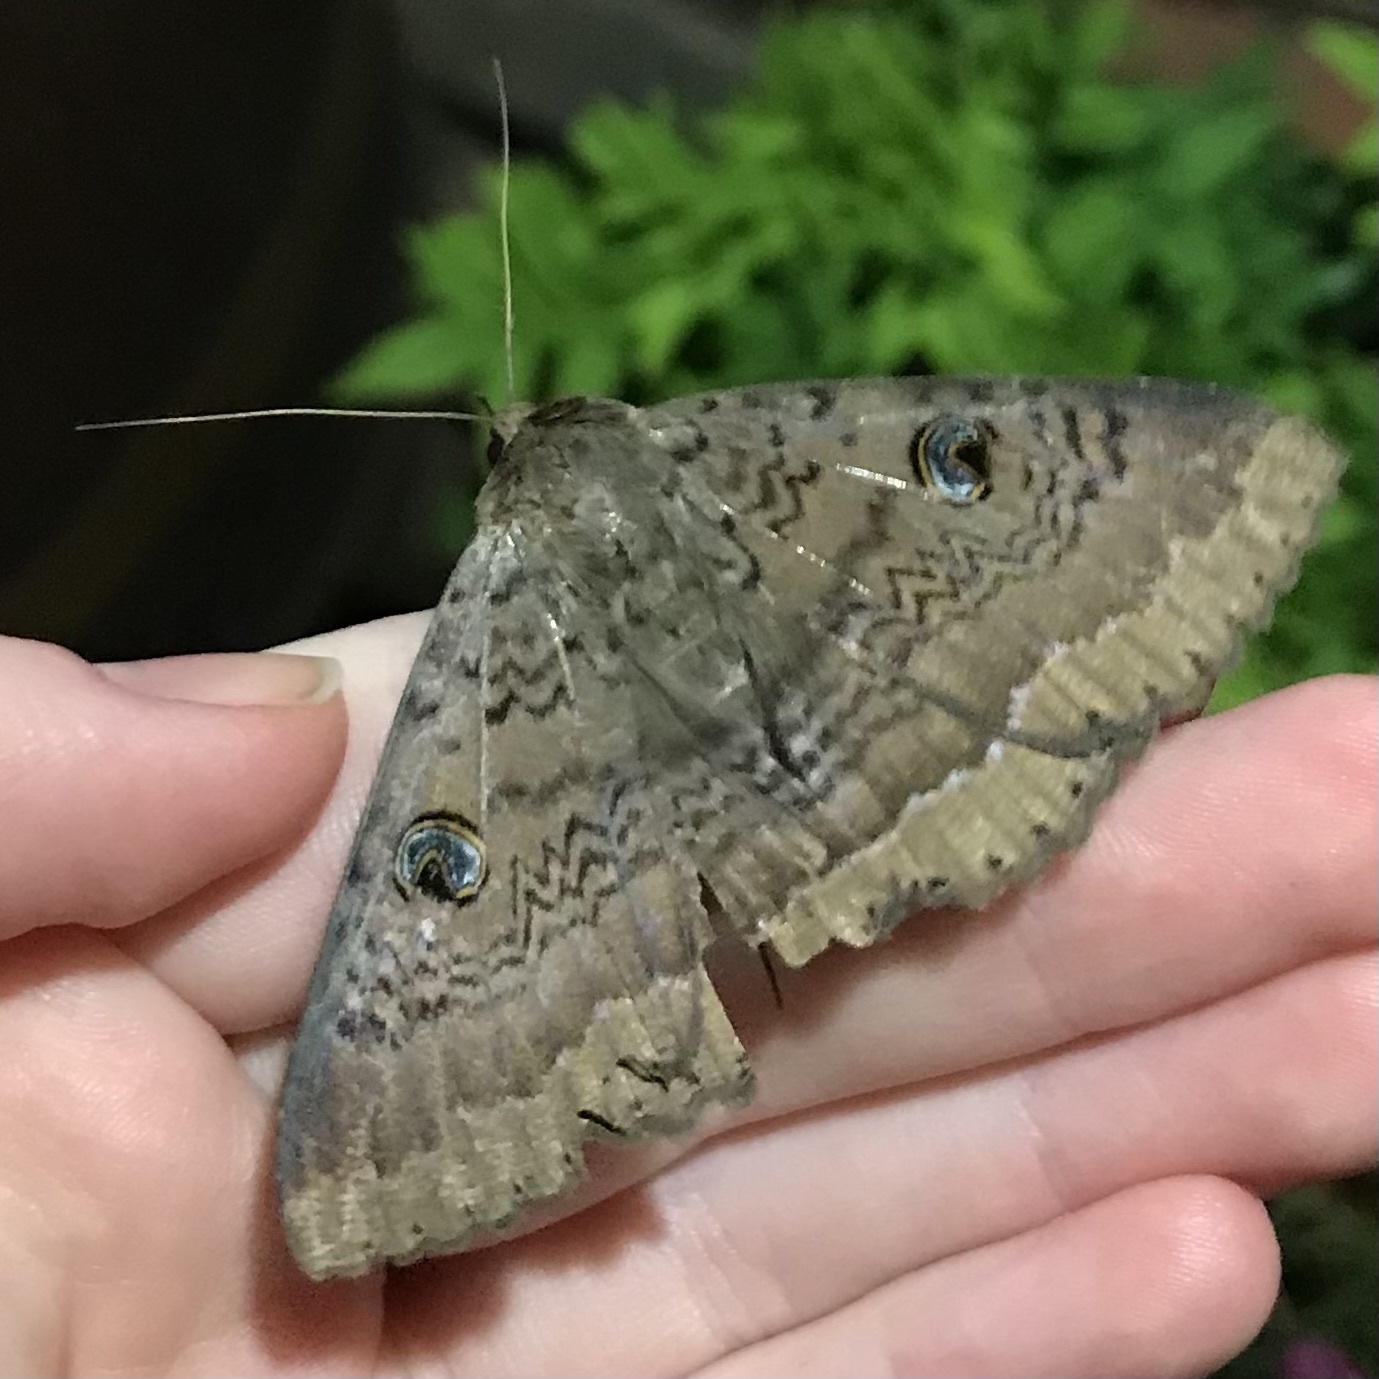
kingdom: Animalia
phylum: Arthropoda
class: Insecta
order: Lepidoptera
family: Erebidae
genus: Dasypodia
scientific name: Dasypodia cymatodes
